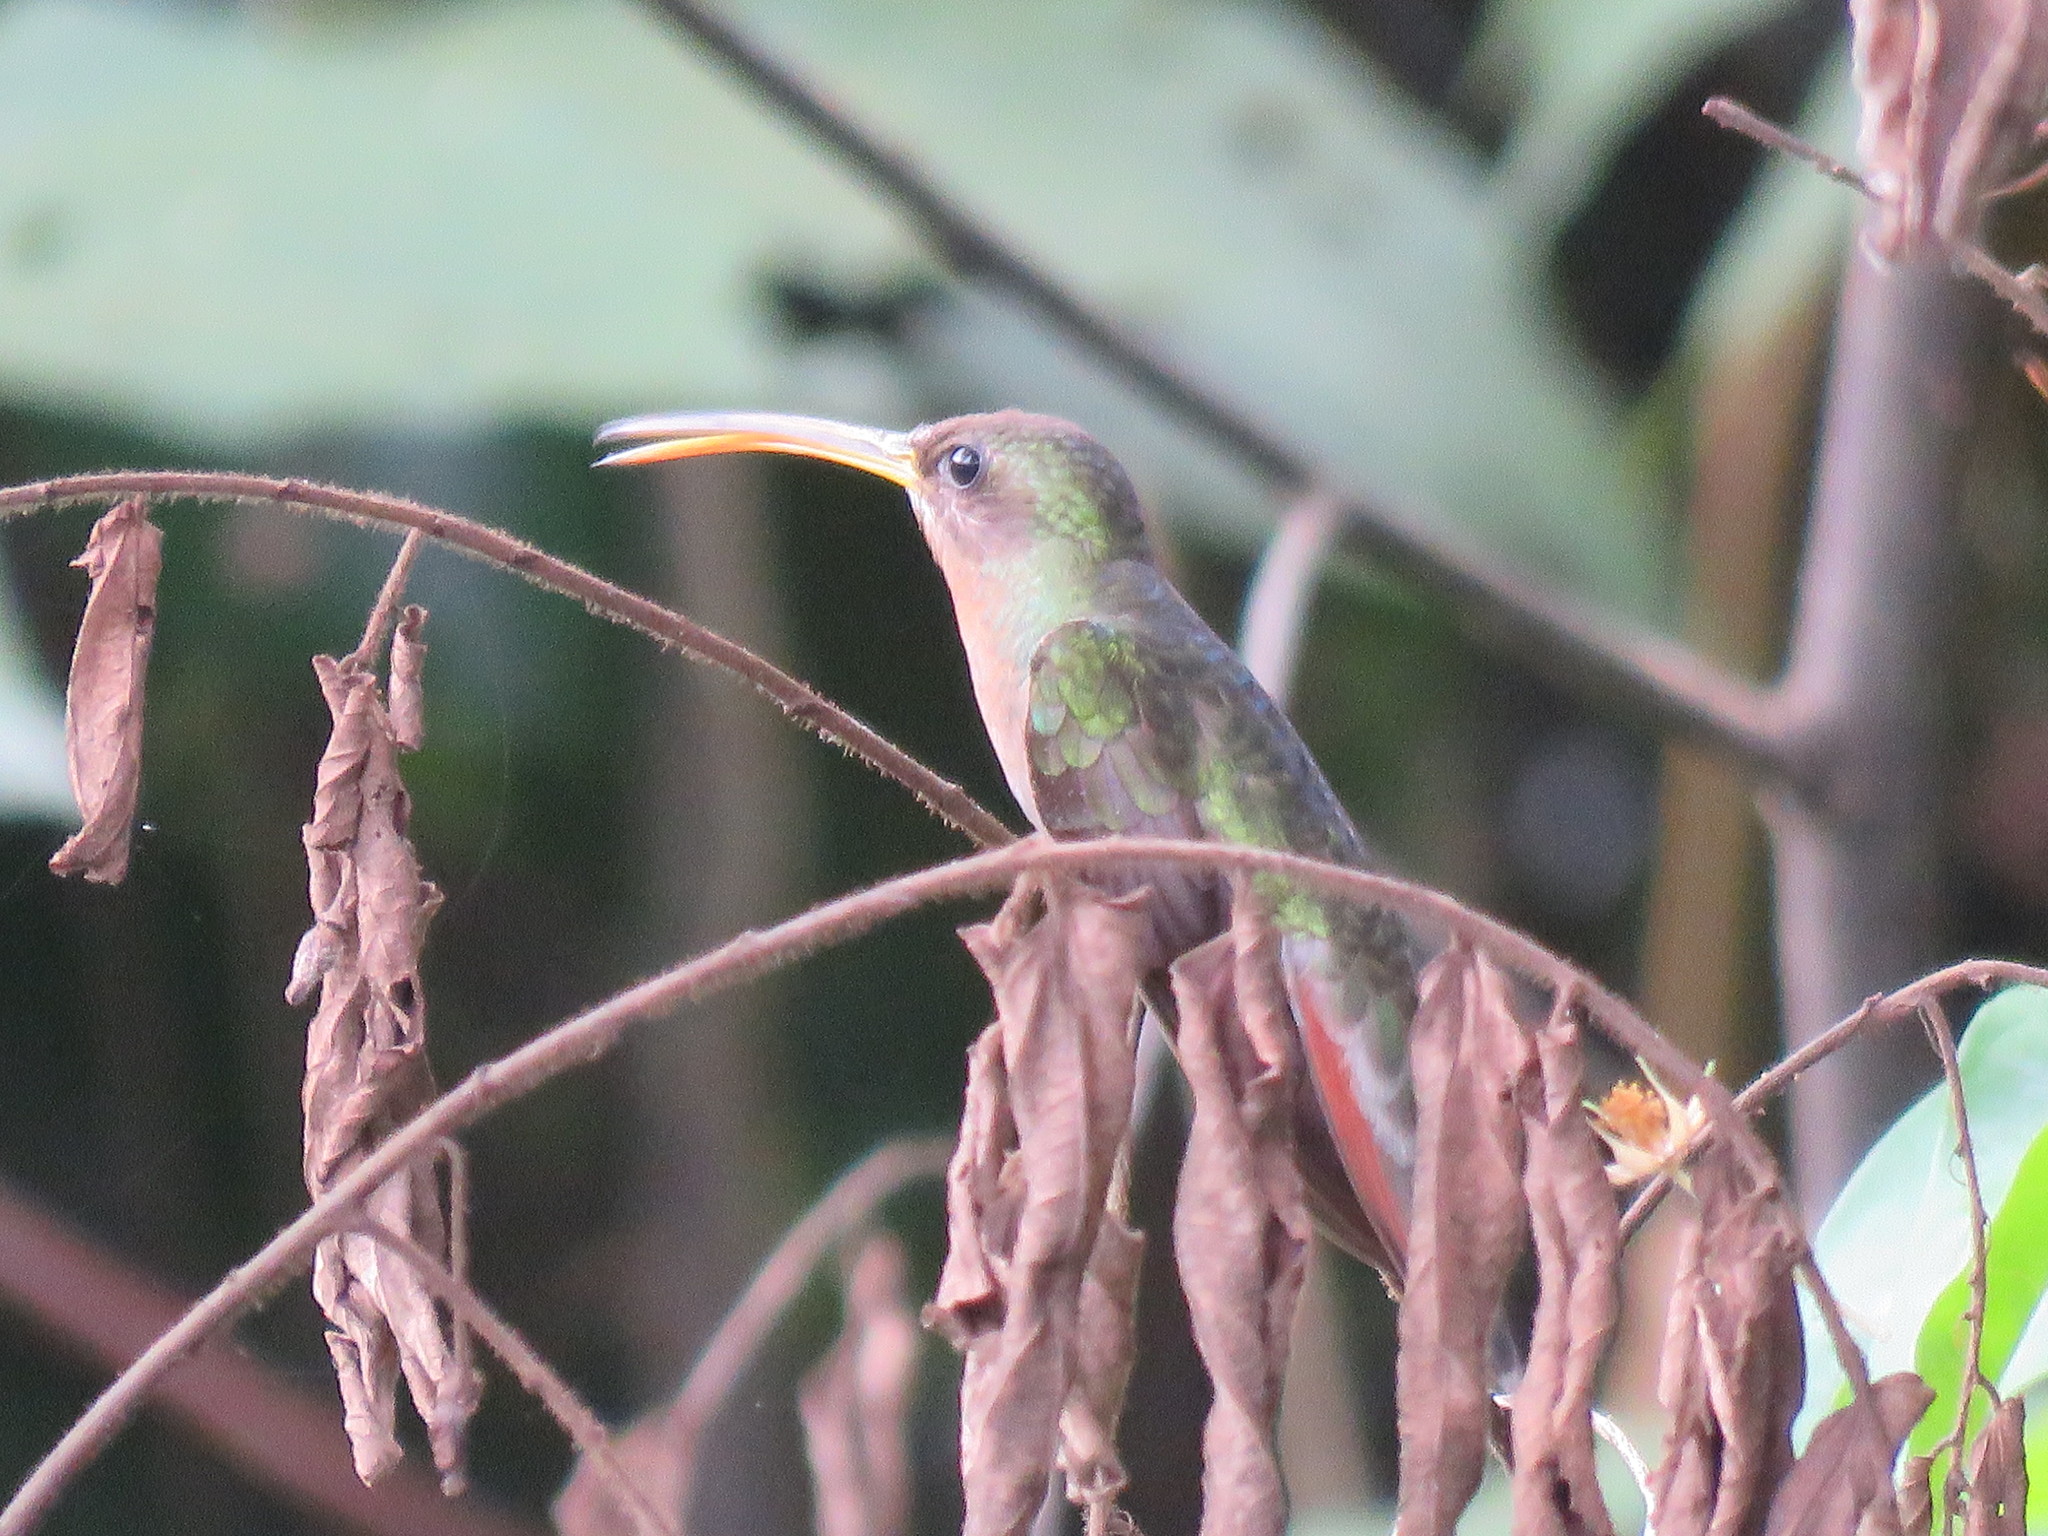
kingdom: Animalia
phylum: Chordata
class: Aves
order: Apodiformes
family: Trochilidae
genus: Glaucis
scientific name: Glaucis hirsutus
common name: Rufous-breasted hermit
